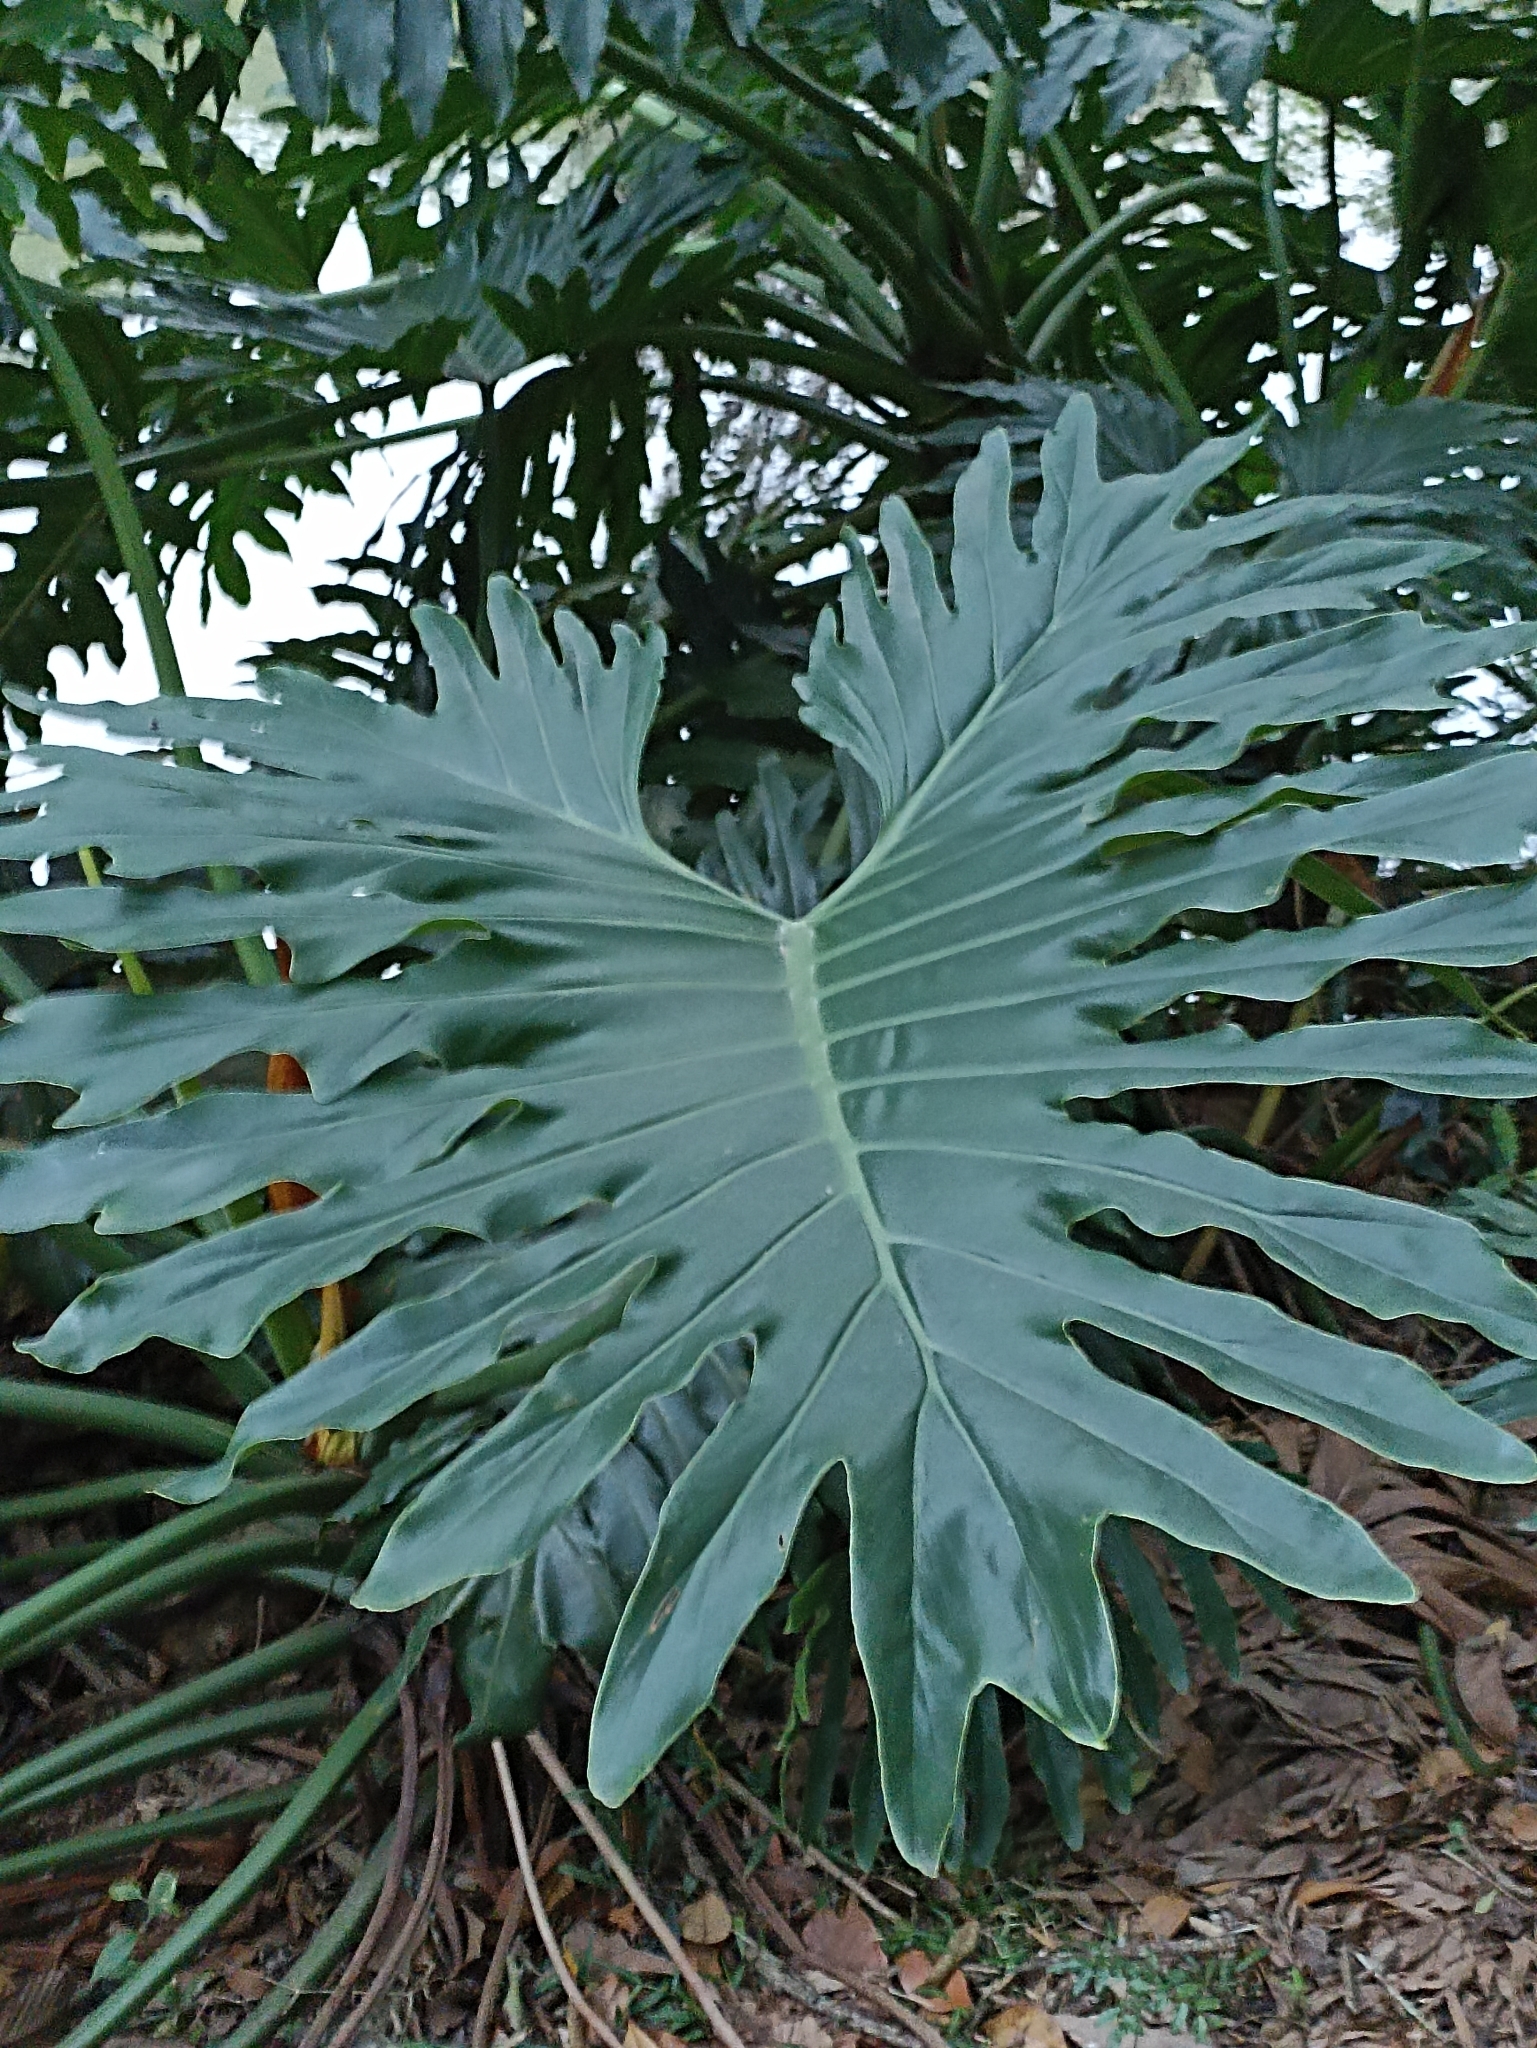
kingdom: Plantae
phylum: Tracheophyta
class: Liliopsida
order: Alismatales
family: Araceae
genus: Thaumatophyllum
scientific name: Thaumatophyllum bipinnatifidum
